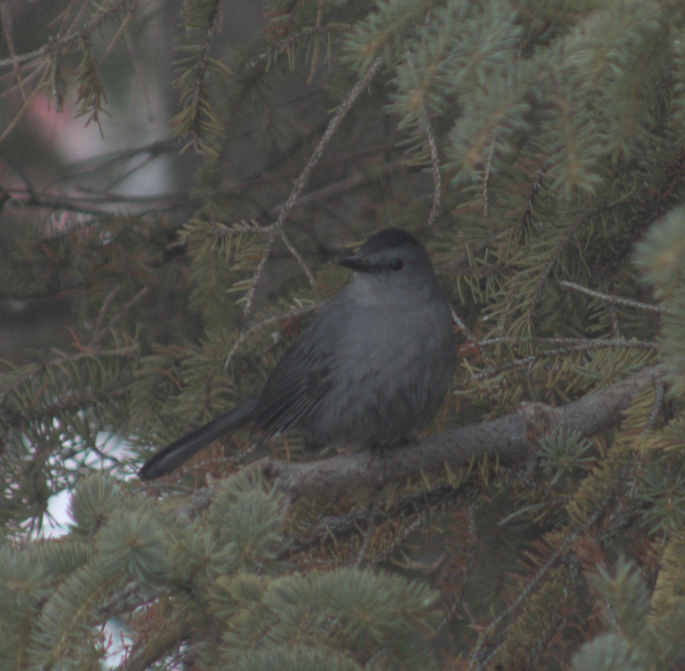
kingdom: Animalia
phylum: Chordata
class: Aves
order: Passeriformes
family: Mimidae
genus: Dumetella
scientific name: Dumetella carolinensis
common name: Gray catbird
